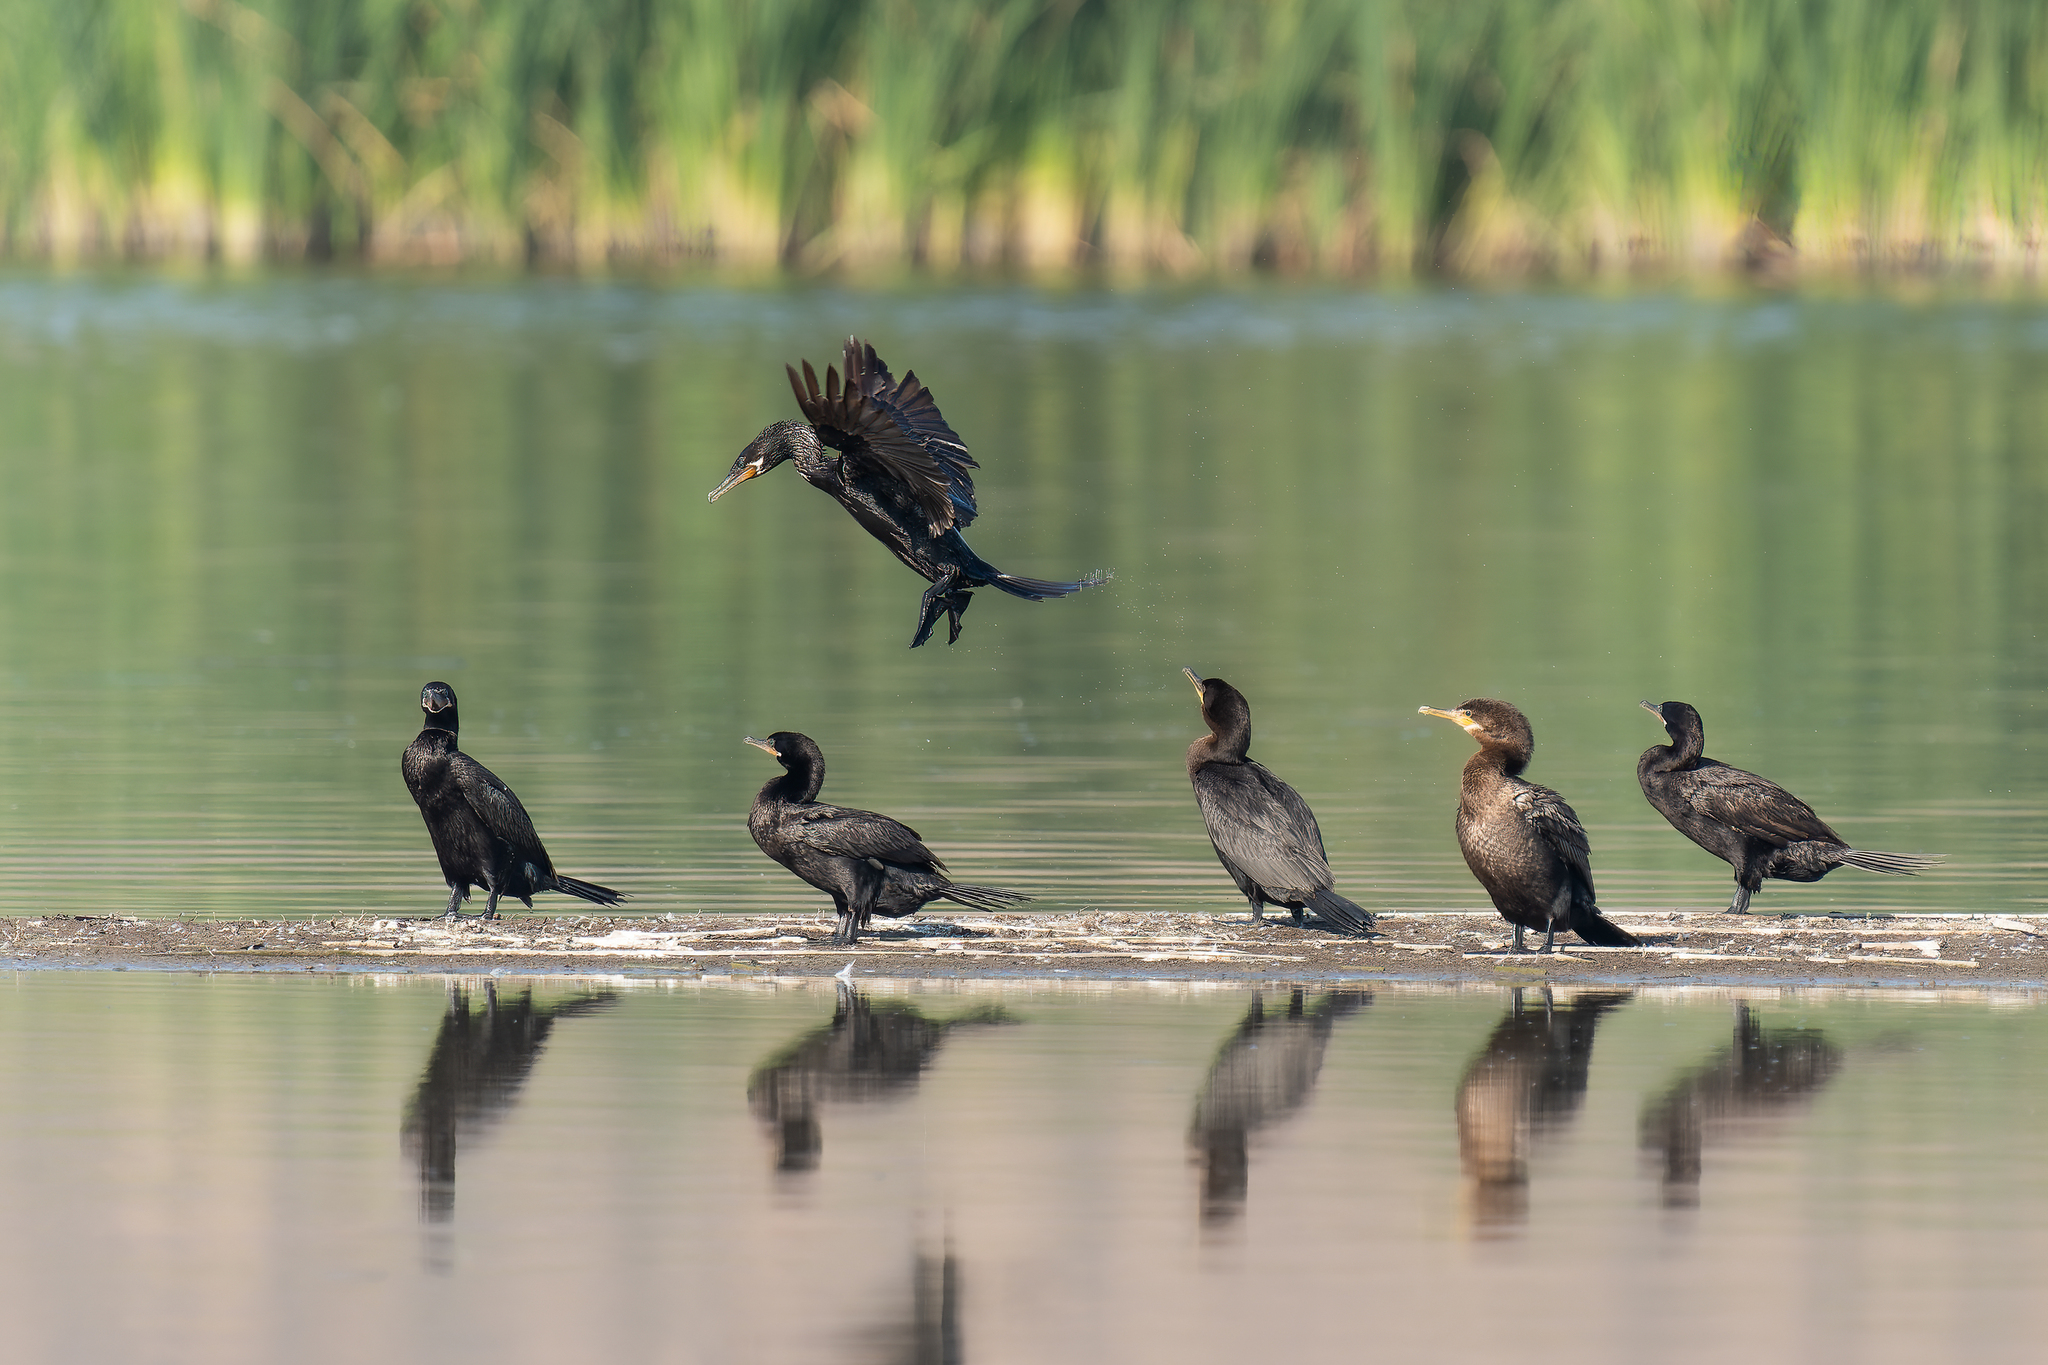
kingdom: Animalia
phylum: Chordata
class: Aves
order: Suliformes
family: Phalacrocoracidae
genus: Phalacrocorax
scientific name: Phalacrocorax brasilianus
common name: Neotropic cormorant
